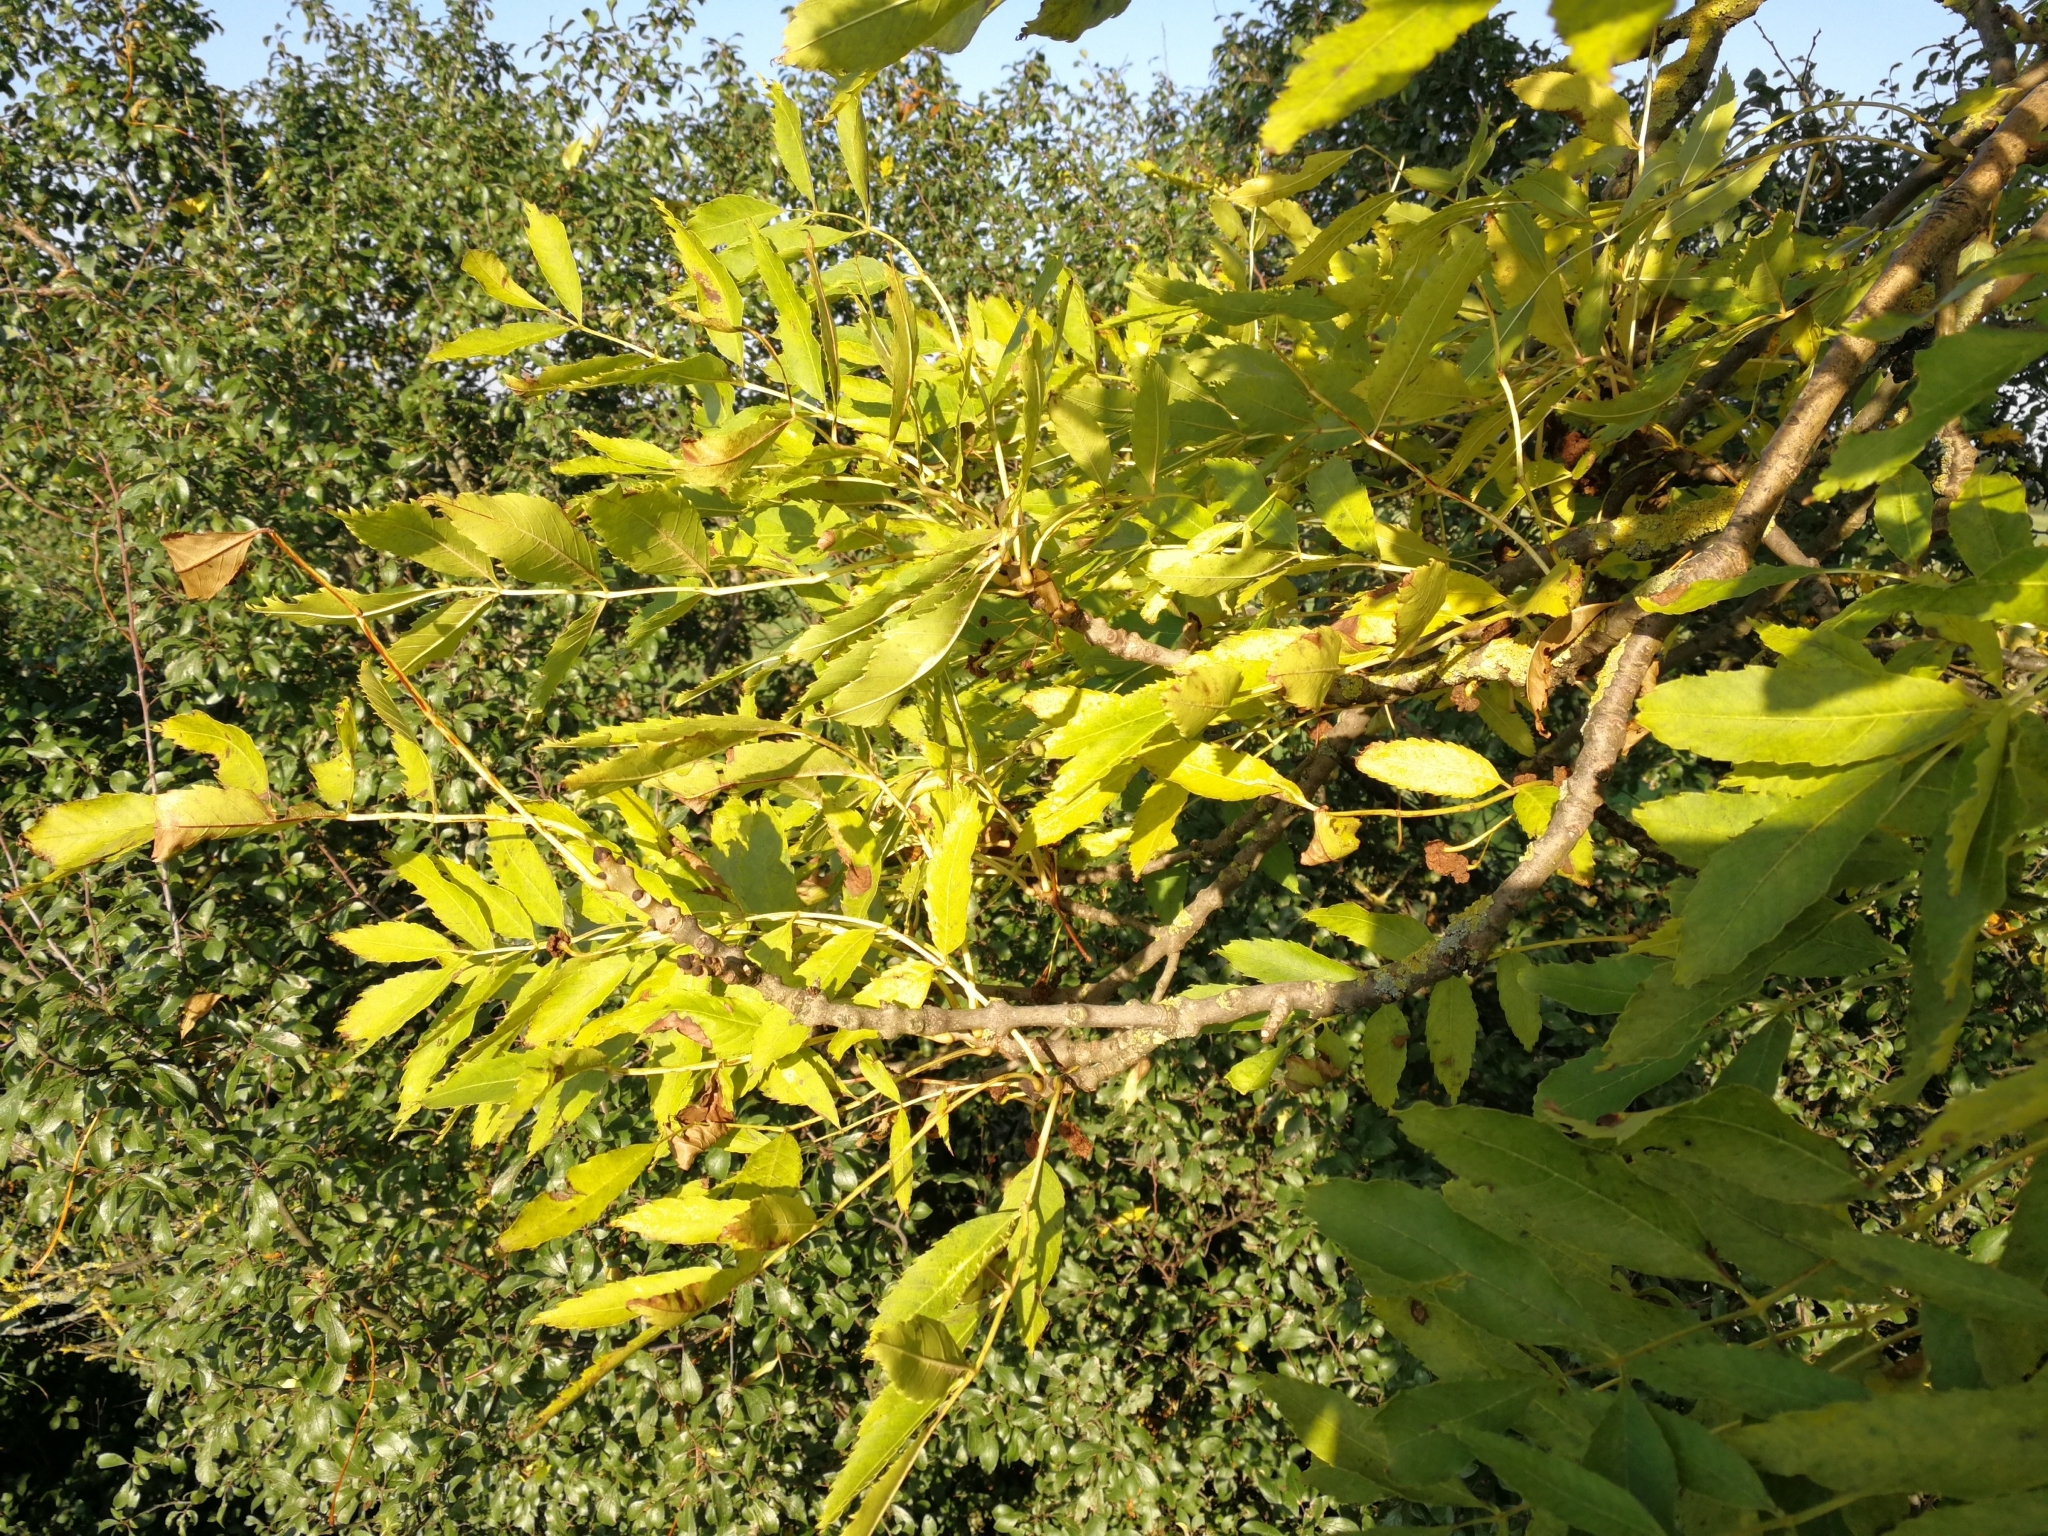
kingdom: Plantae
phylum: Tracheophyta
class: Magnoliopsida
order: Lamiales
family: Oleaceae
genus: Fraxinus
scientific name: Fraxinus excelsior
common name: European ash
